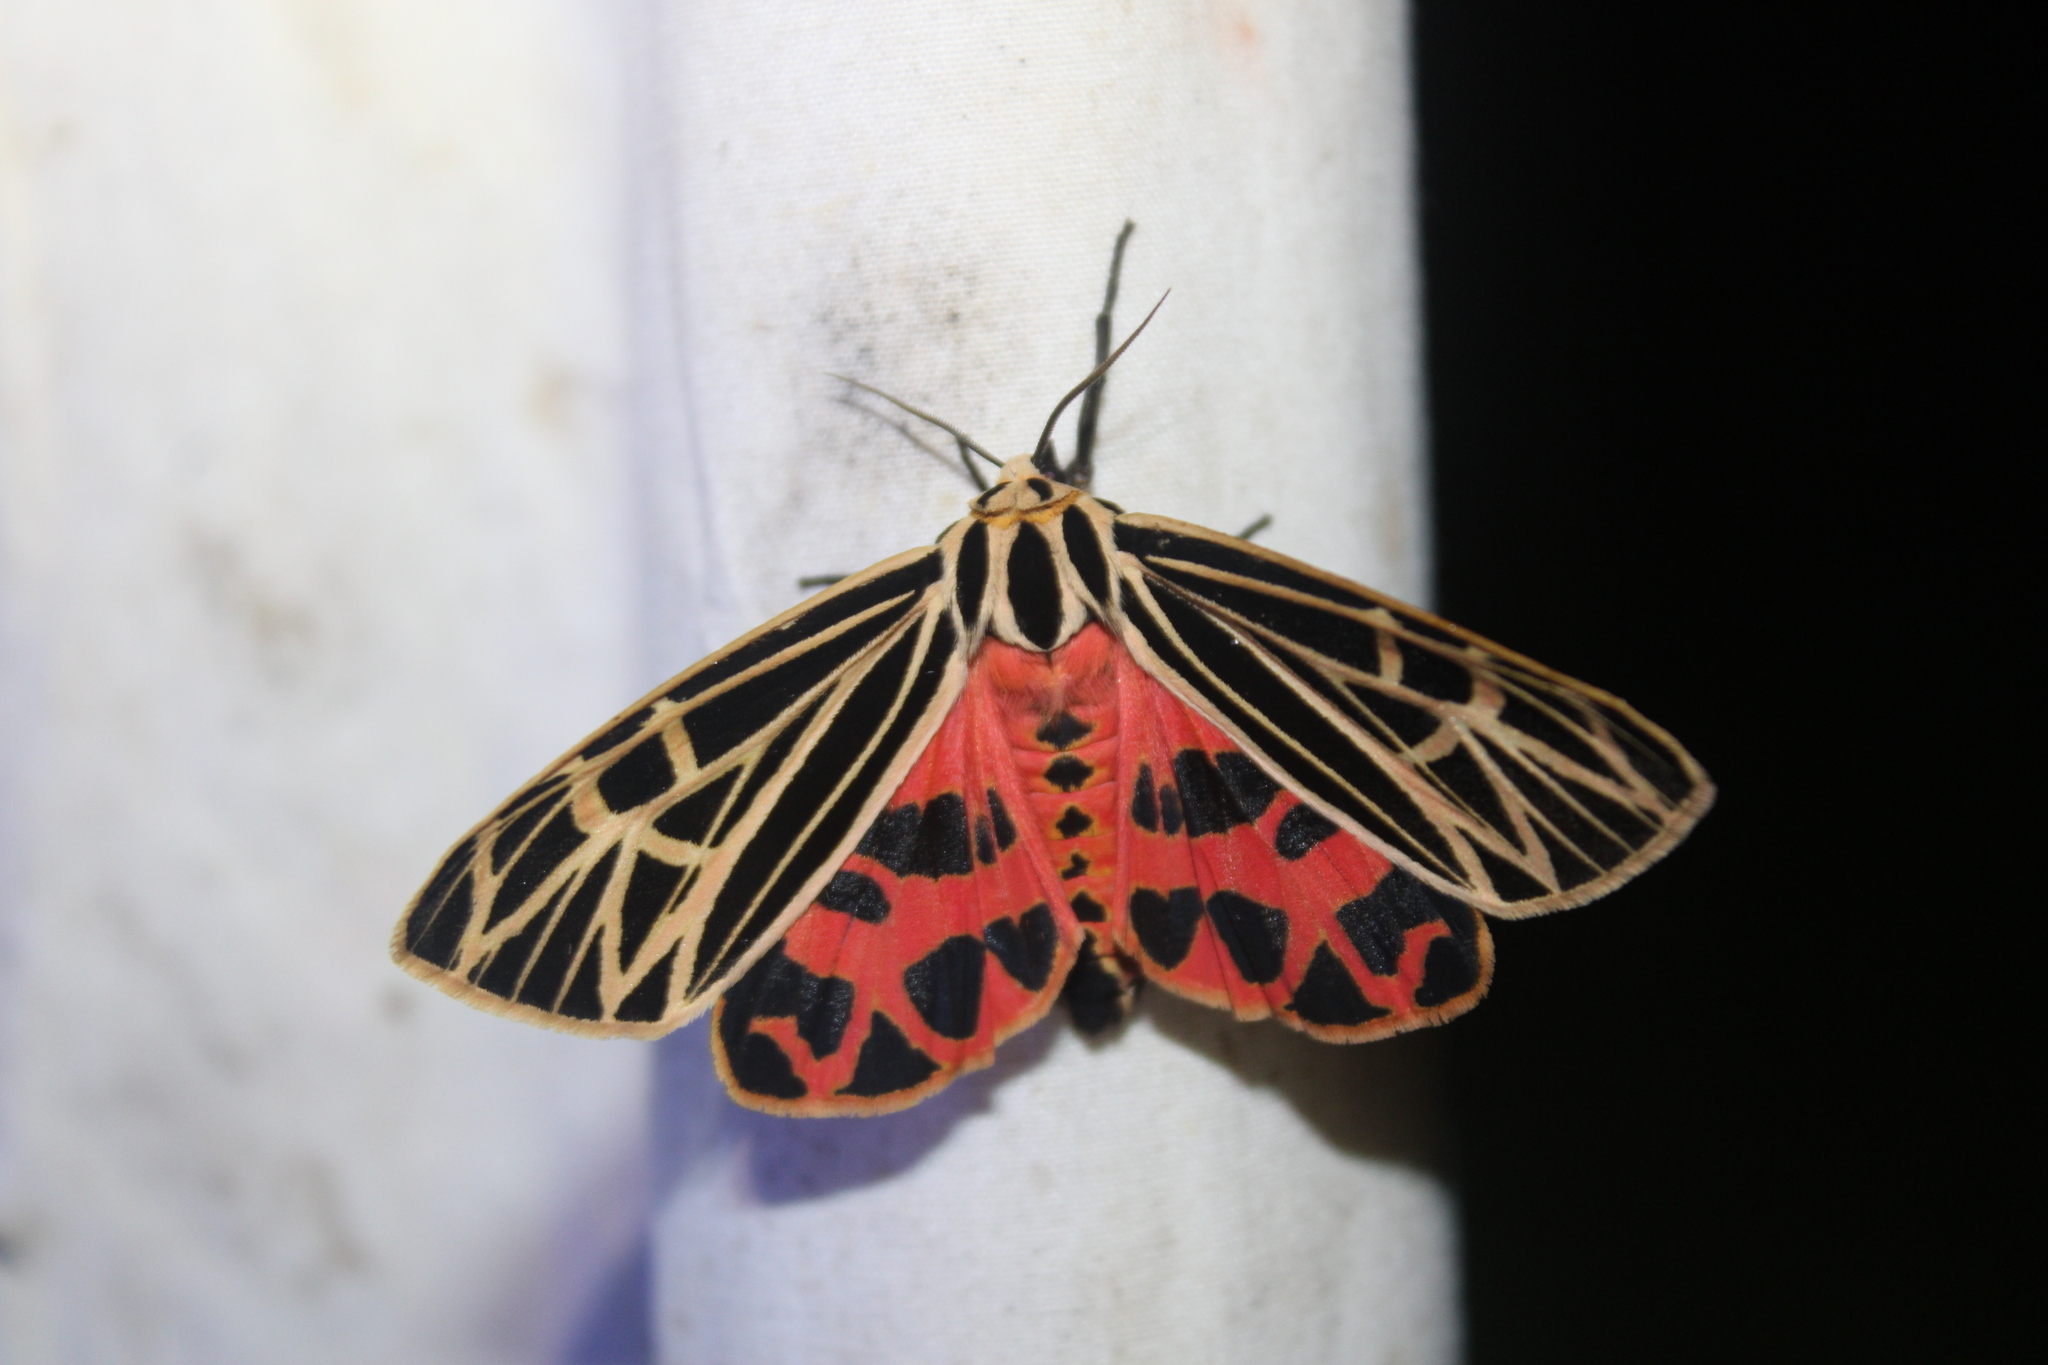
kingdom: Animalia
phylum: Arthropoda
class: Insecta
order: Lepidoptera
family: Erebidae
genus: Grammia
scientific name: Grammia virgo
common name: Virgin tiger moth
